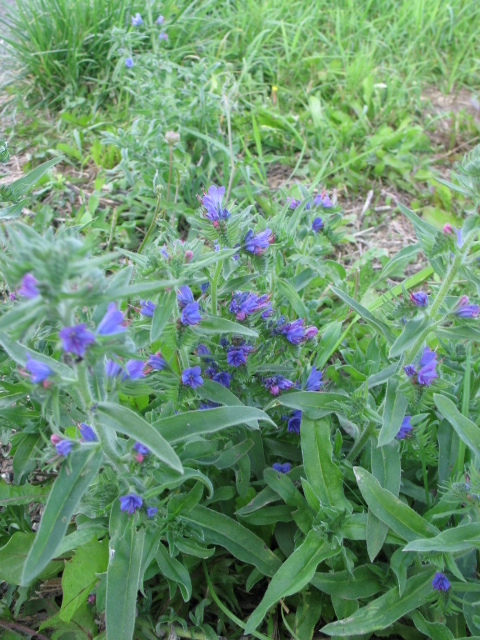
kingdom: Plantae
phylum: Tracheophyta
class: Magnoliopsida
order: Boraginales
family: Boraginaceae
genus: Echium
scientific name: Echium vulgare
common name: Common viper's bugloss
